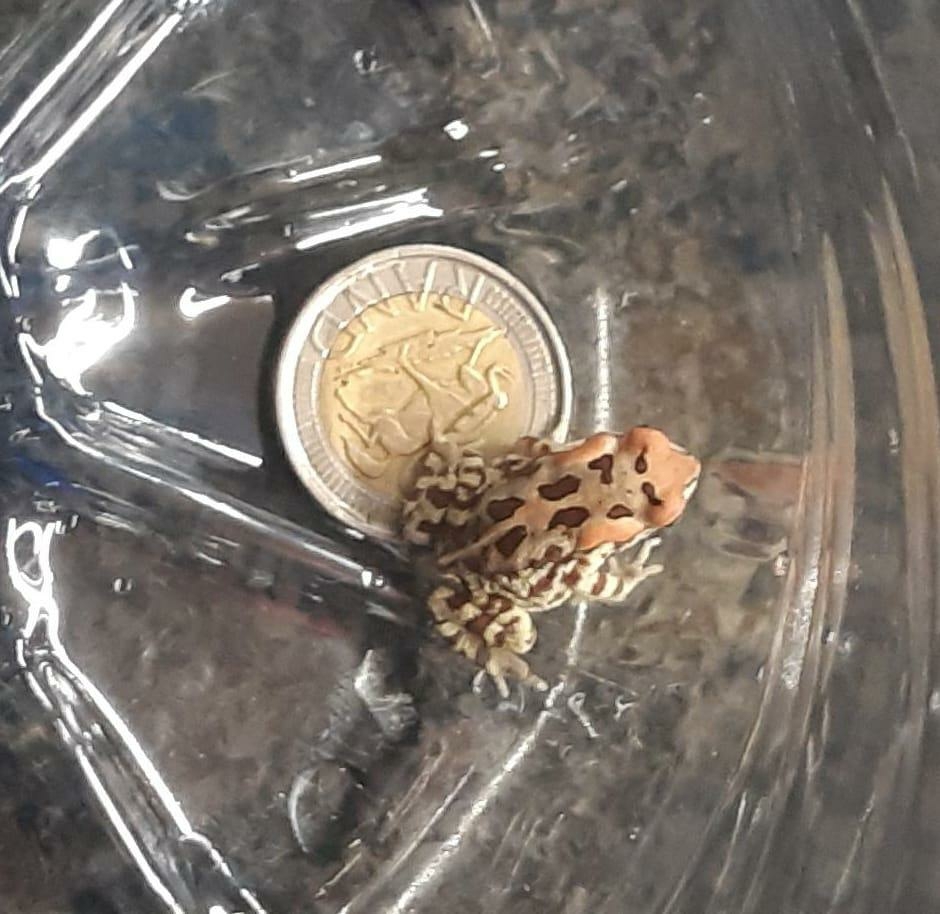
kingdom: Animalia
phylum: Chordata
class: Amphibia
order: Anura
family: Bufonidae
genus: Sclerophrys
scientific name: Sclerophrys pantherina
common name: Panther toad
